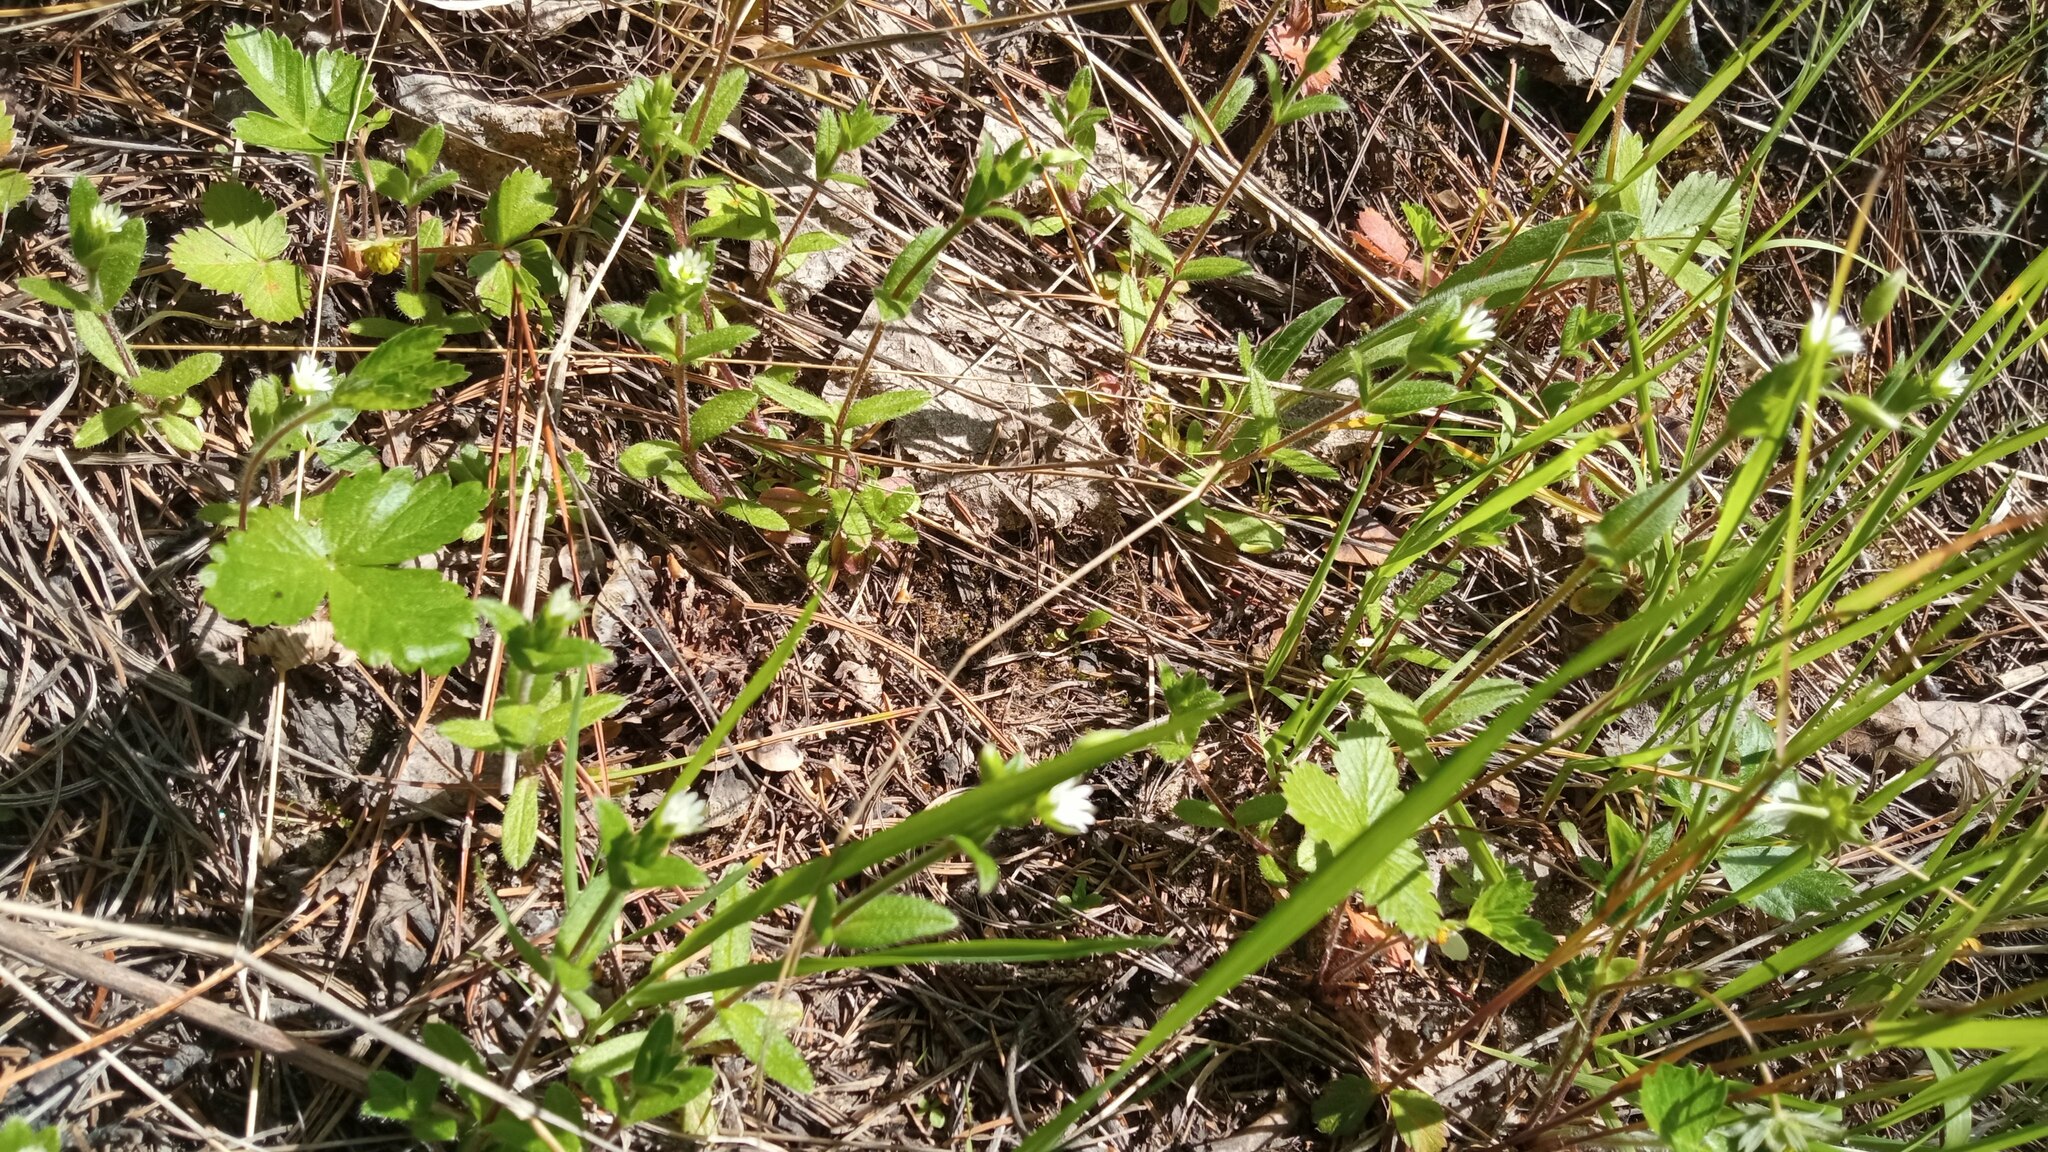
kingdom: Plantae
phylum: Tracheophyta
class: Magnoliopsida
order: Caryophyllales
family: Caryophyllaceae
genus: Cerastium
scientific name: Cerastium holosteoides
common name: Big chickweed
